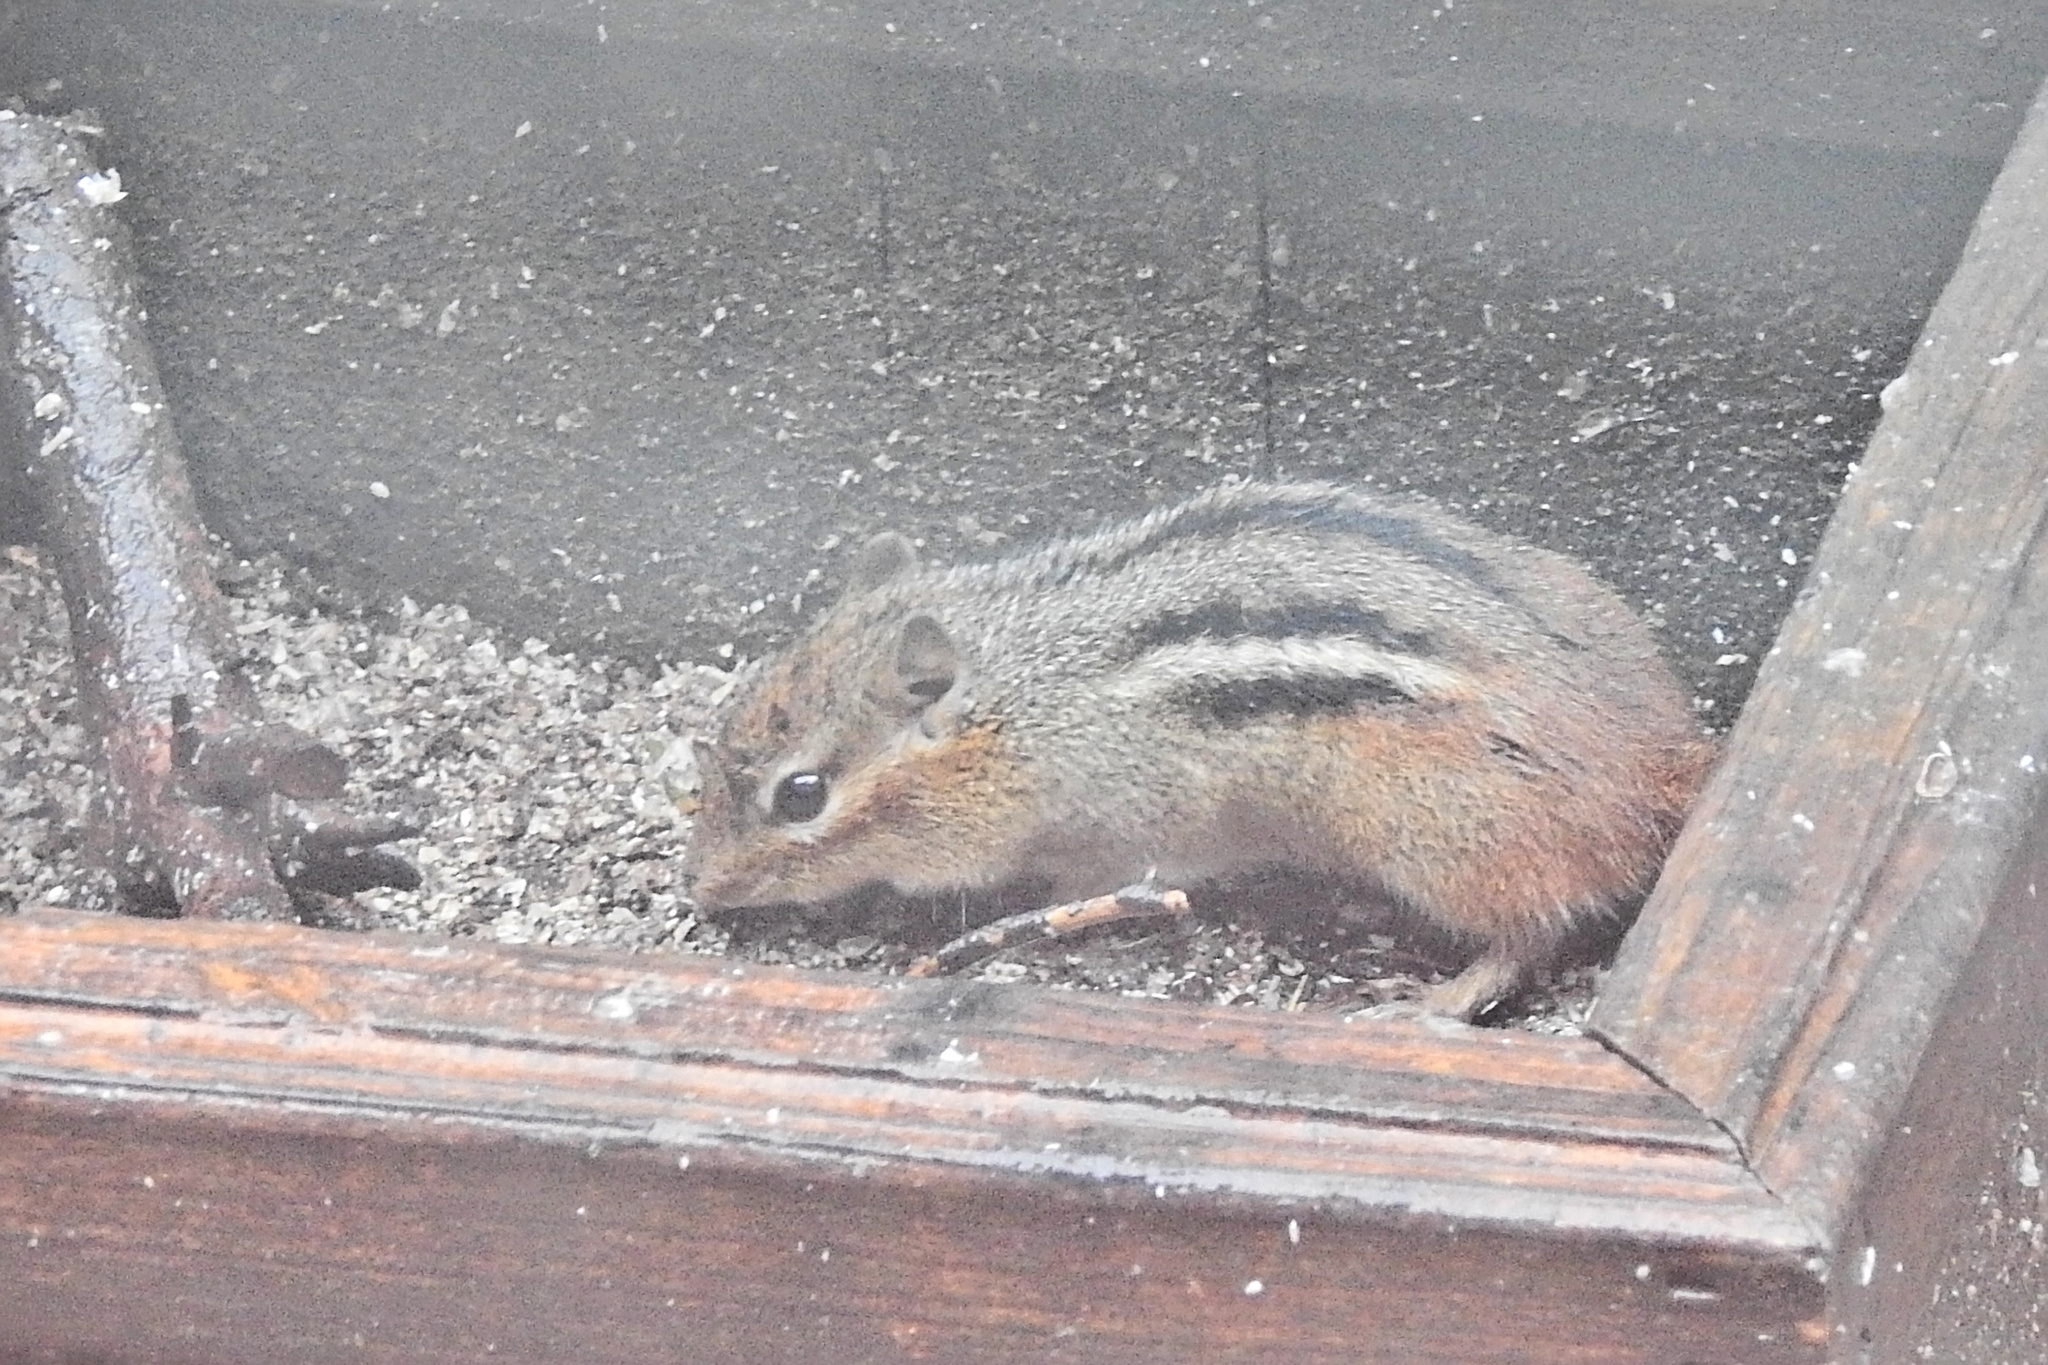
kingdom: Animalia
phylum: Chordata
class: Mammalia
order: Rodentia
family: Sciuridae
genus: Tamias
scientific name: Tamias striatus
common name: Eastern chipmunk
